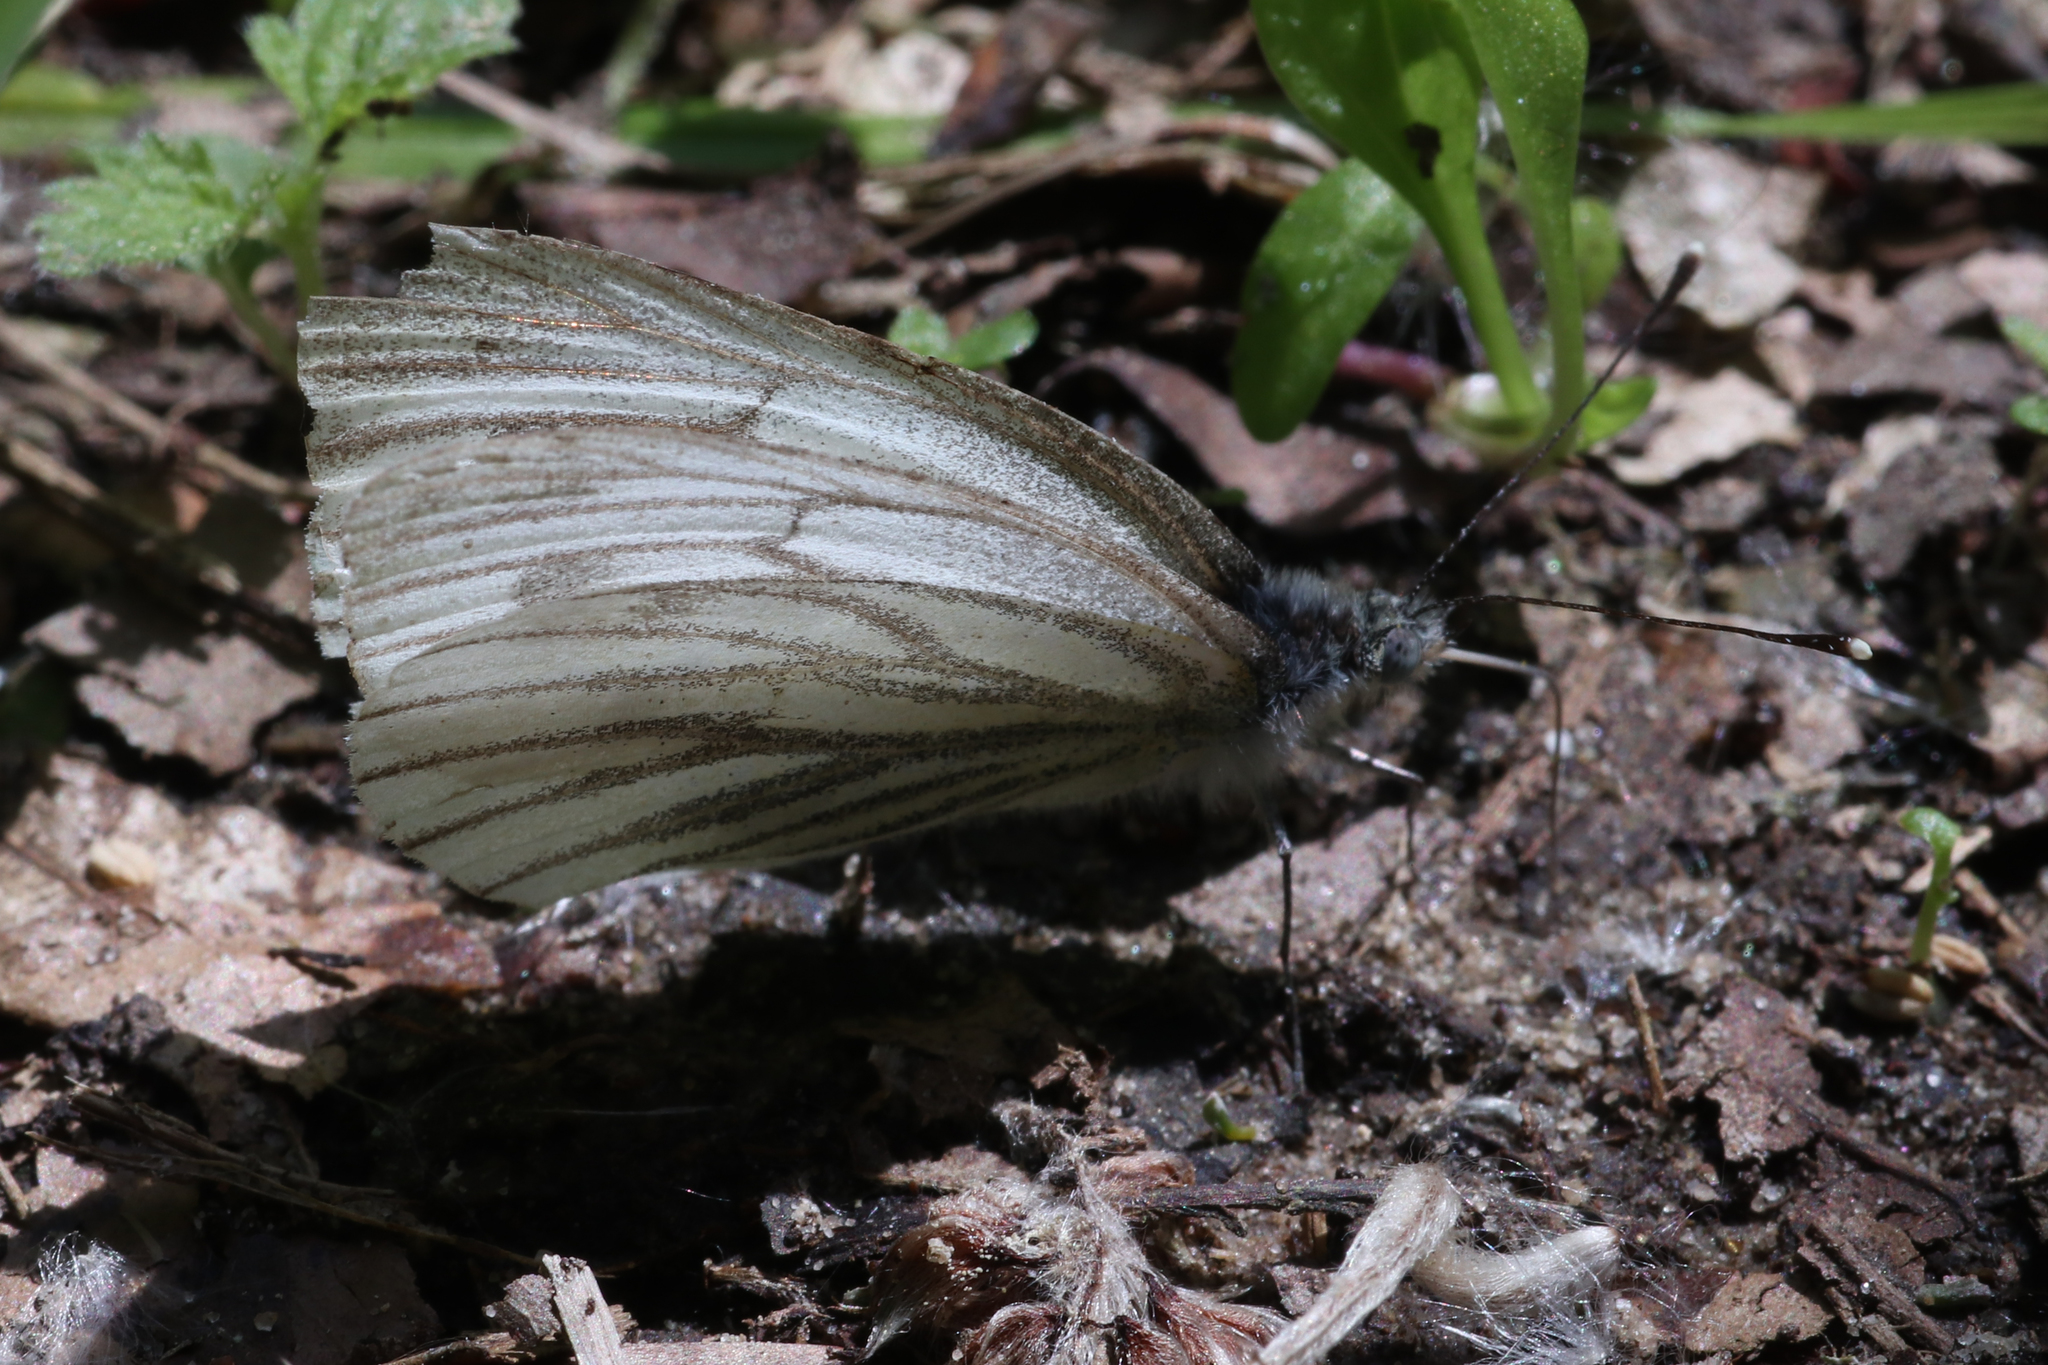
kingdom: Animalia
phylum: Arthropoda
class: Insecta
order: Lepidoptera
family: Pieridae
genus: Pieris
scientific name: Pieris napi
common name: Green-veined white
